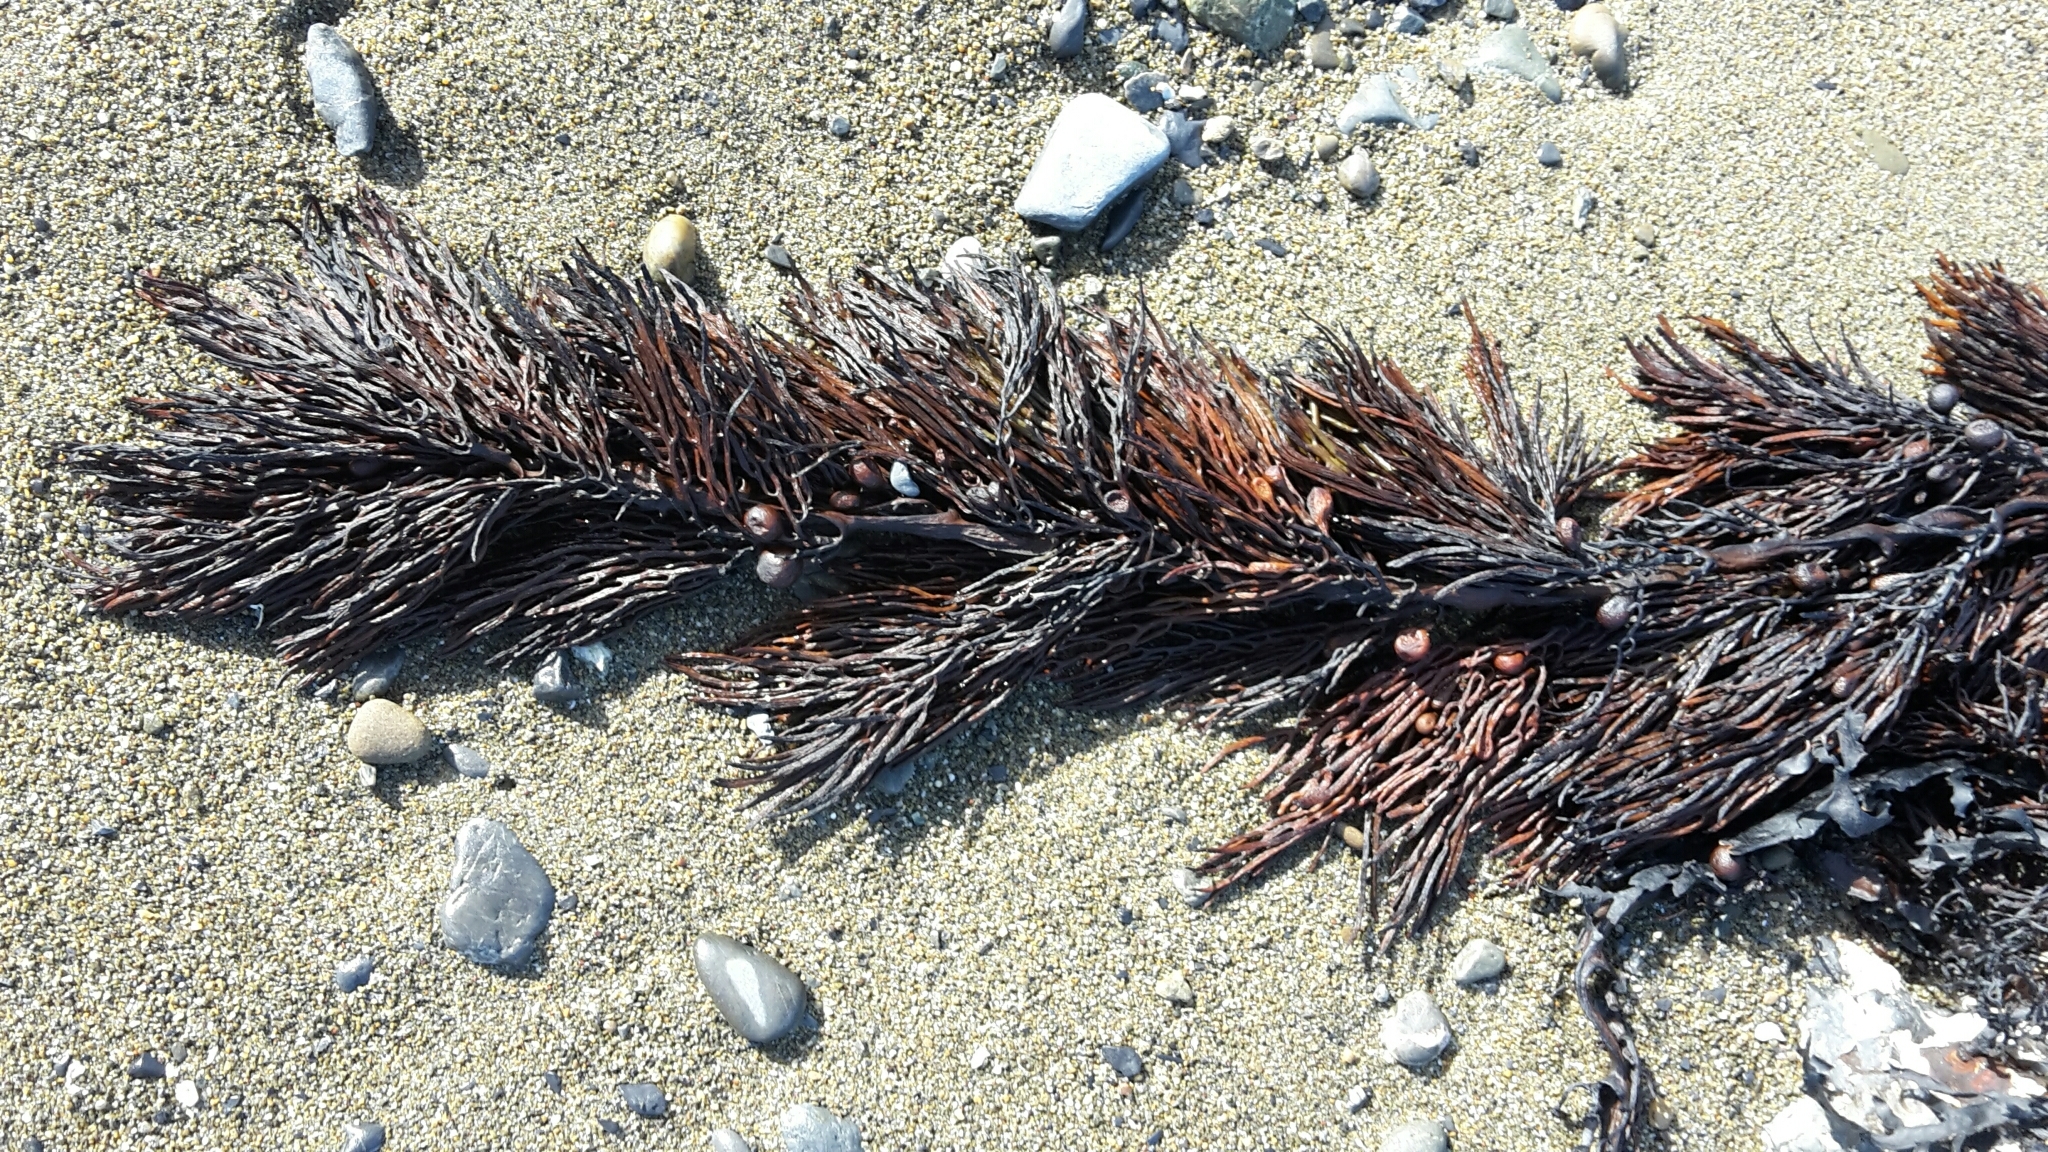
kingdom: Chromista
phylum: Ochrophyta
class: Phaeophyceae
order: Fucales
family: Sargassaceae
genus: Cystophora
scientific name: Cystophora retroflexa
